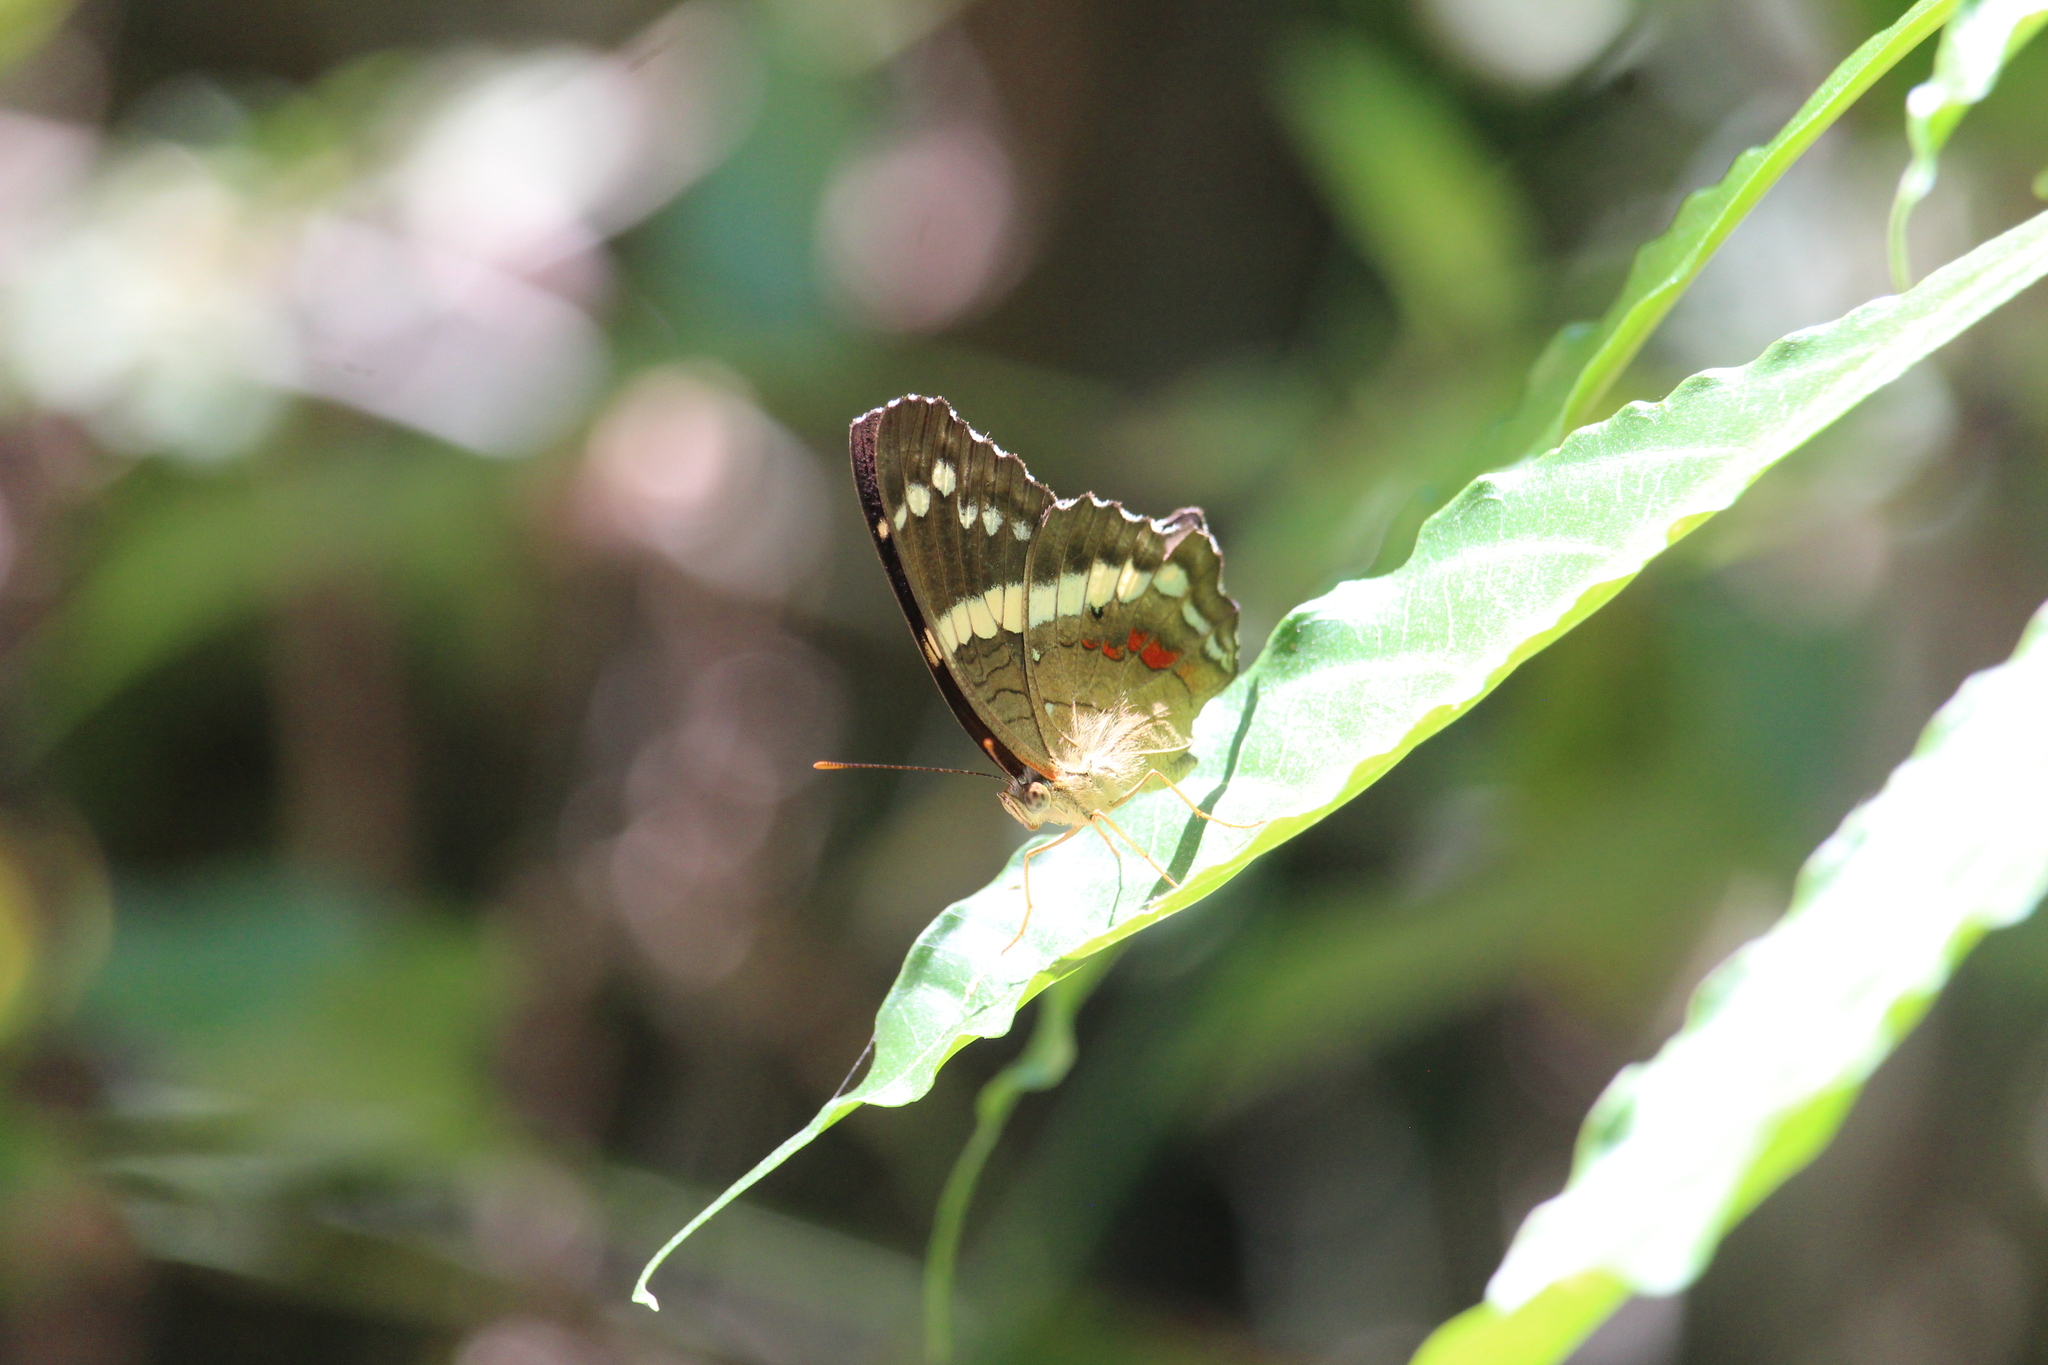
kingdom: Animalia
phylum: Arthropoda
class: Insecta
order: Lepidoptera
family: Nymphalidae
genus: Anartia
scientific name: Anartia fatima
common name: Banded peacock
